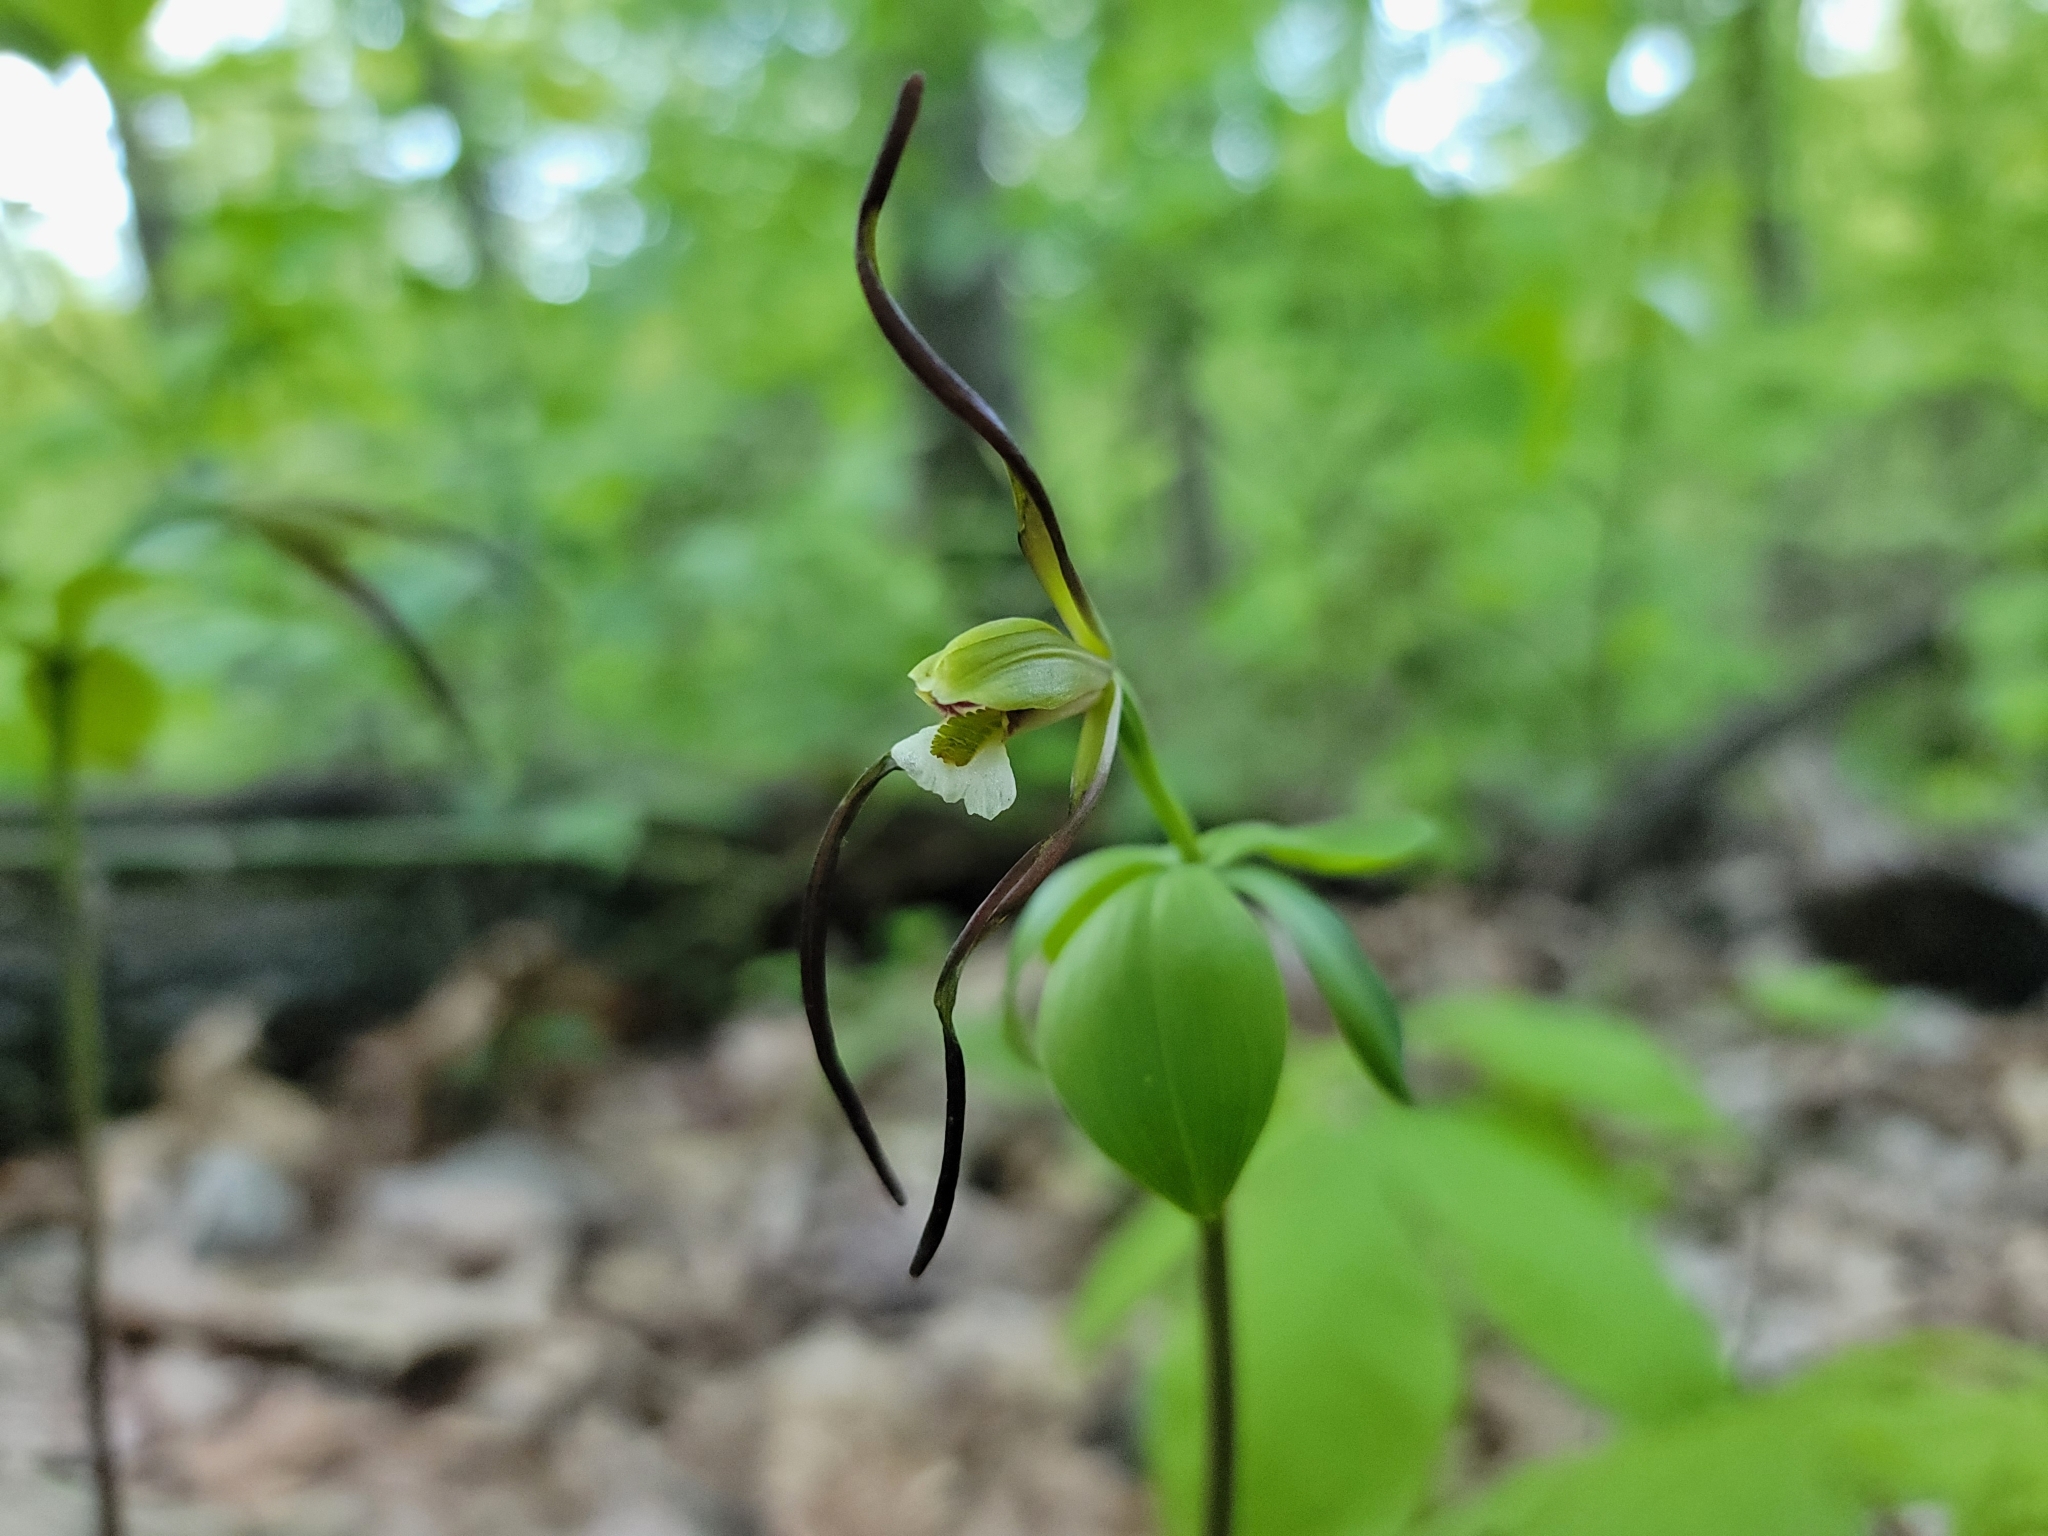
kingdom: Plantae
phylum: Tracheophyta
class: Liliopsida
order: Asparagales
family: Orchidaceae
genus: Isotria
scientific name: Isotria verticillata
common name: Large whorled pogonia
